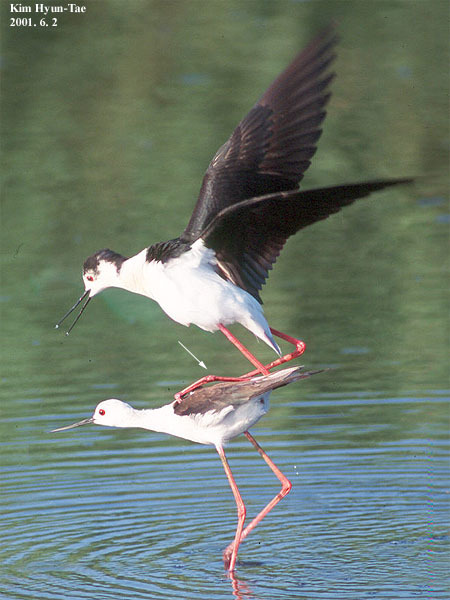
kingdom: Animalia
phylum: Chordata
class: Aves
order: Charadriiformes
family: Recurvirostridae
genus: Himantopus
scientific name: Himantopus himantopus
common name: Black-winged stilt
